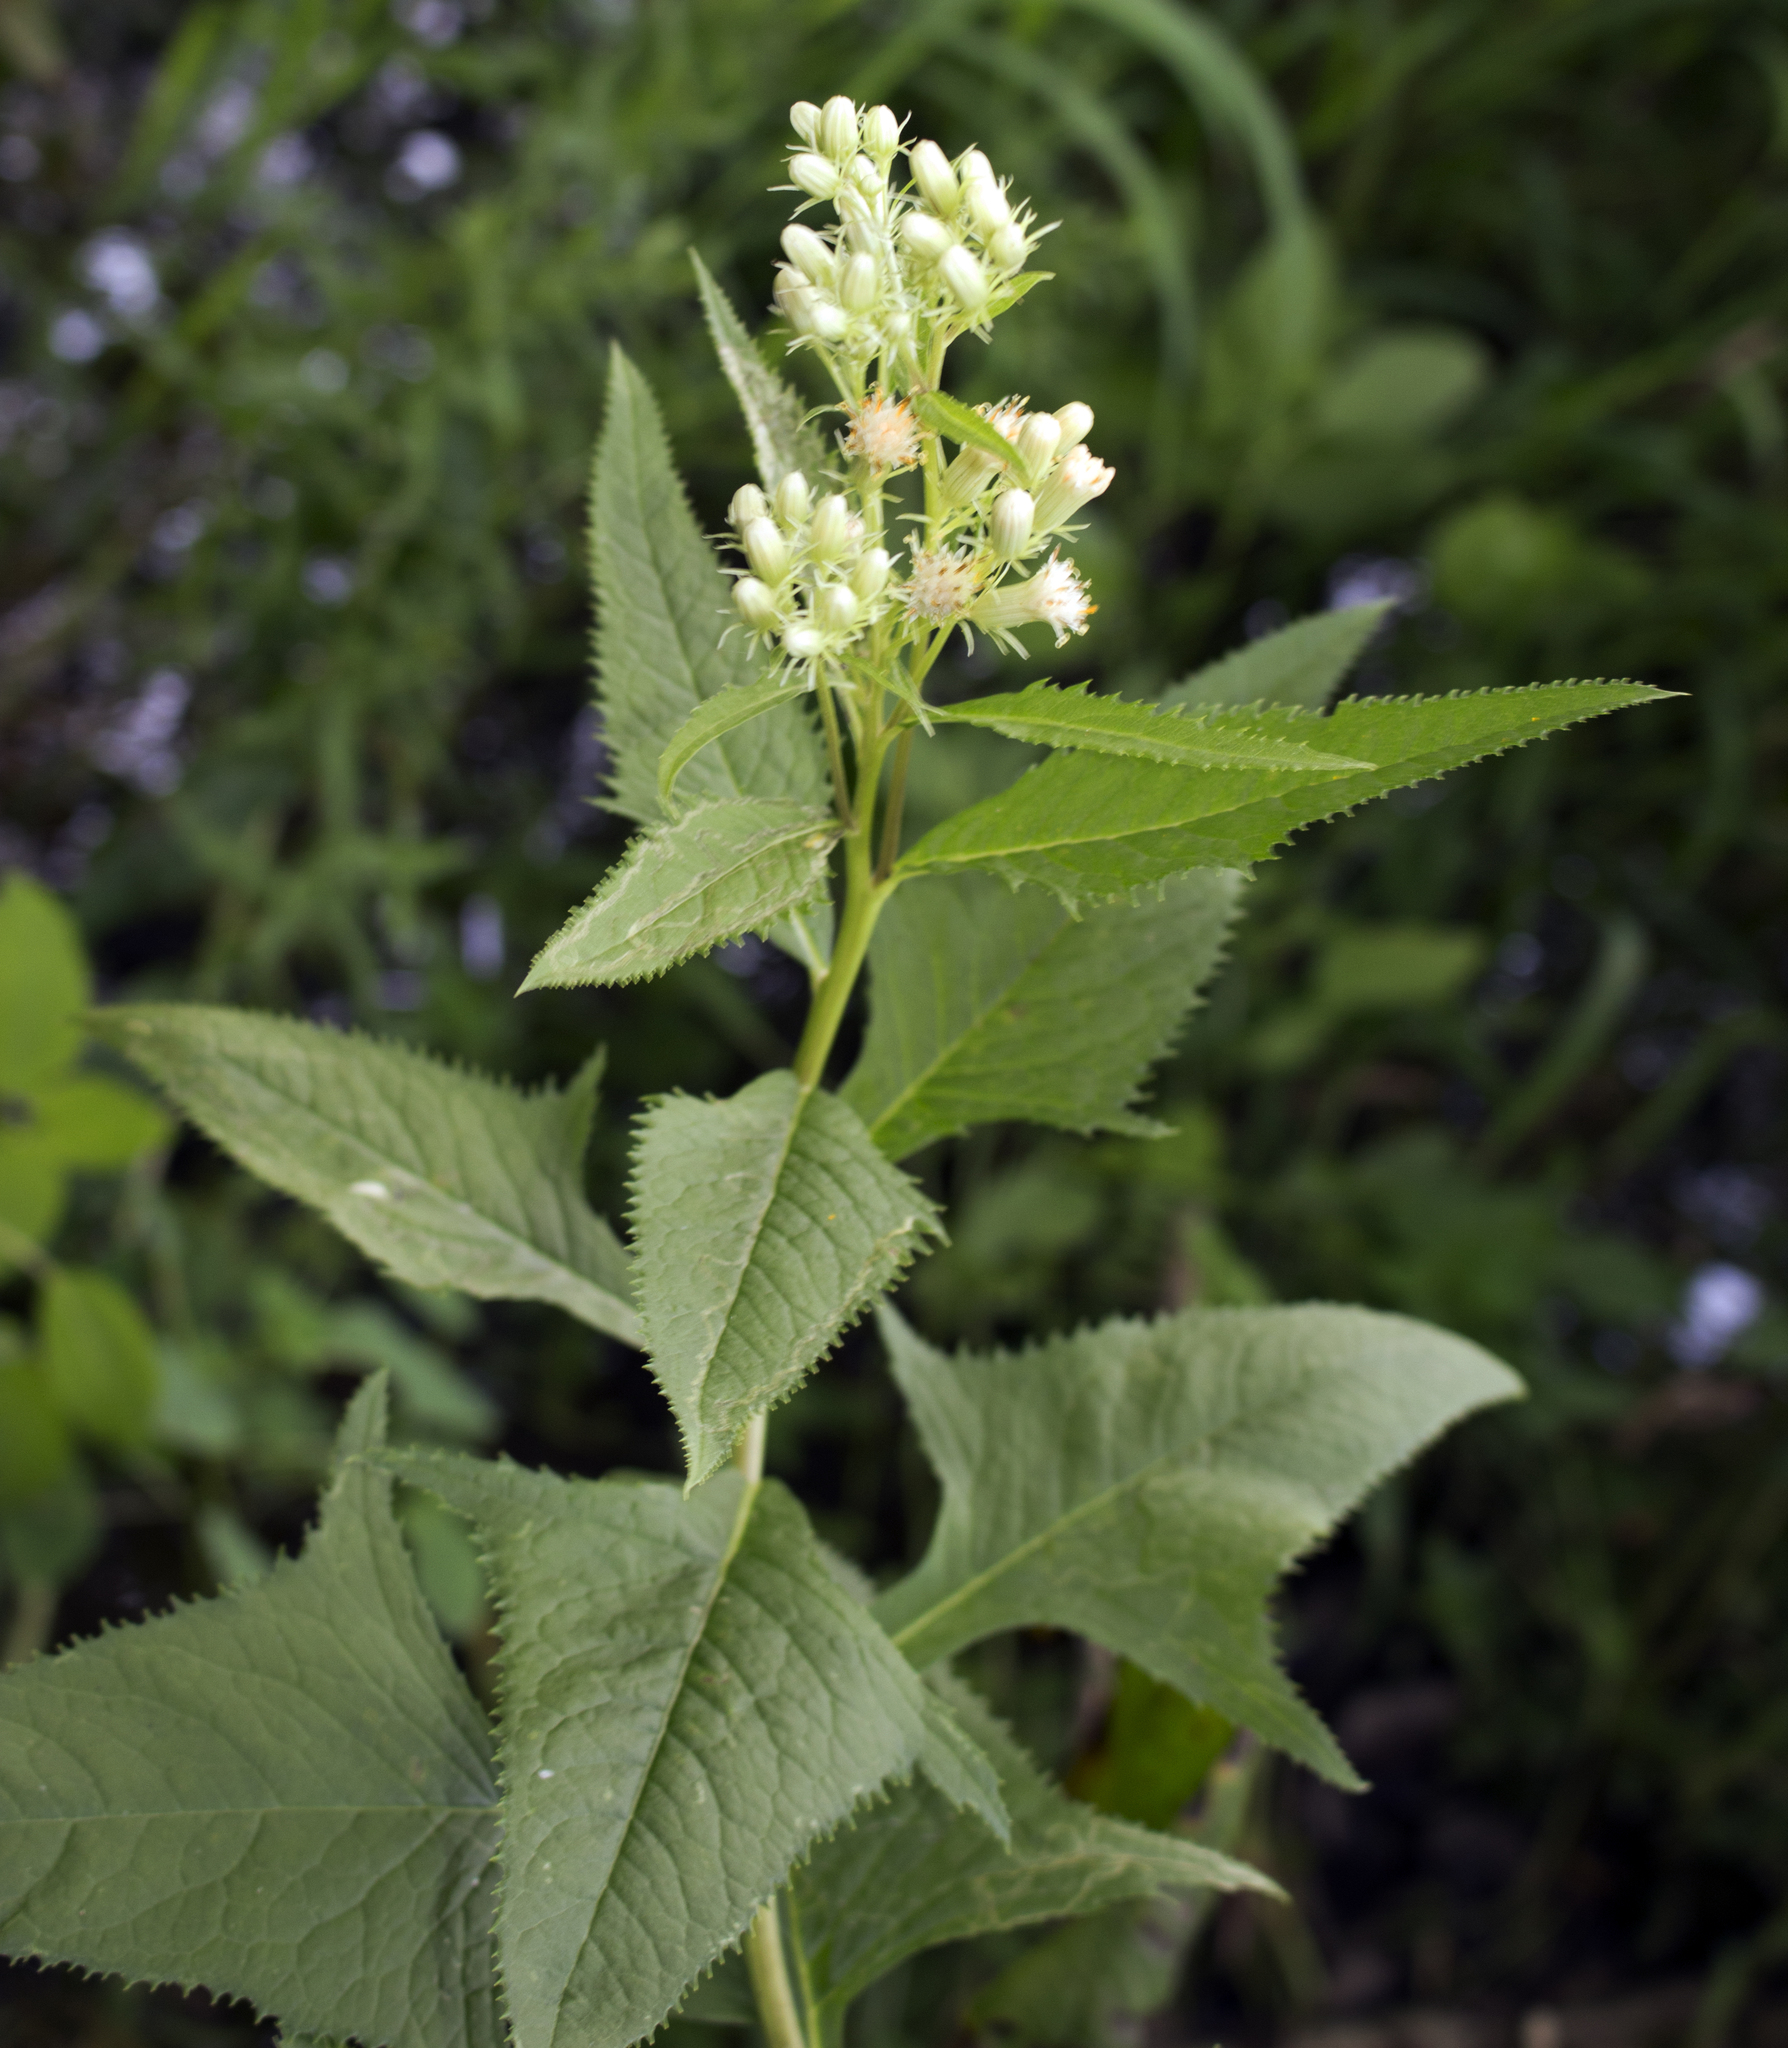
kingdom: Plantae
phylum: Tracheophyta
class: Magnoliopsida
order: Asterales
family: Asteraceae
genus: Hasteola
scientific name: Hasteola suaveolens
